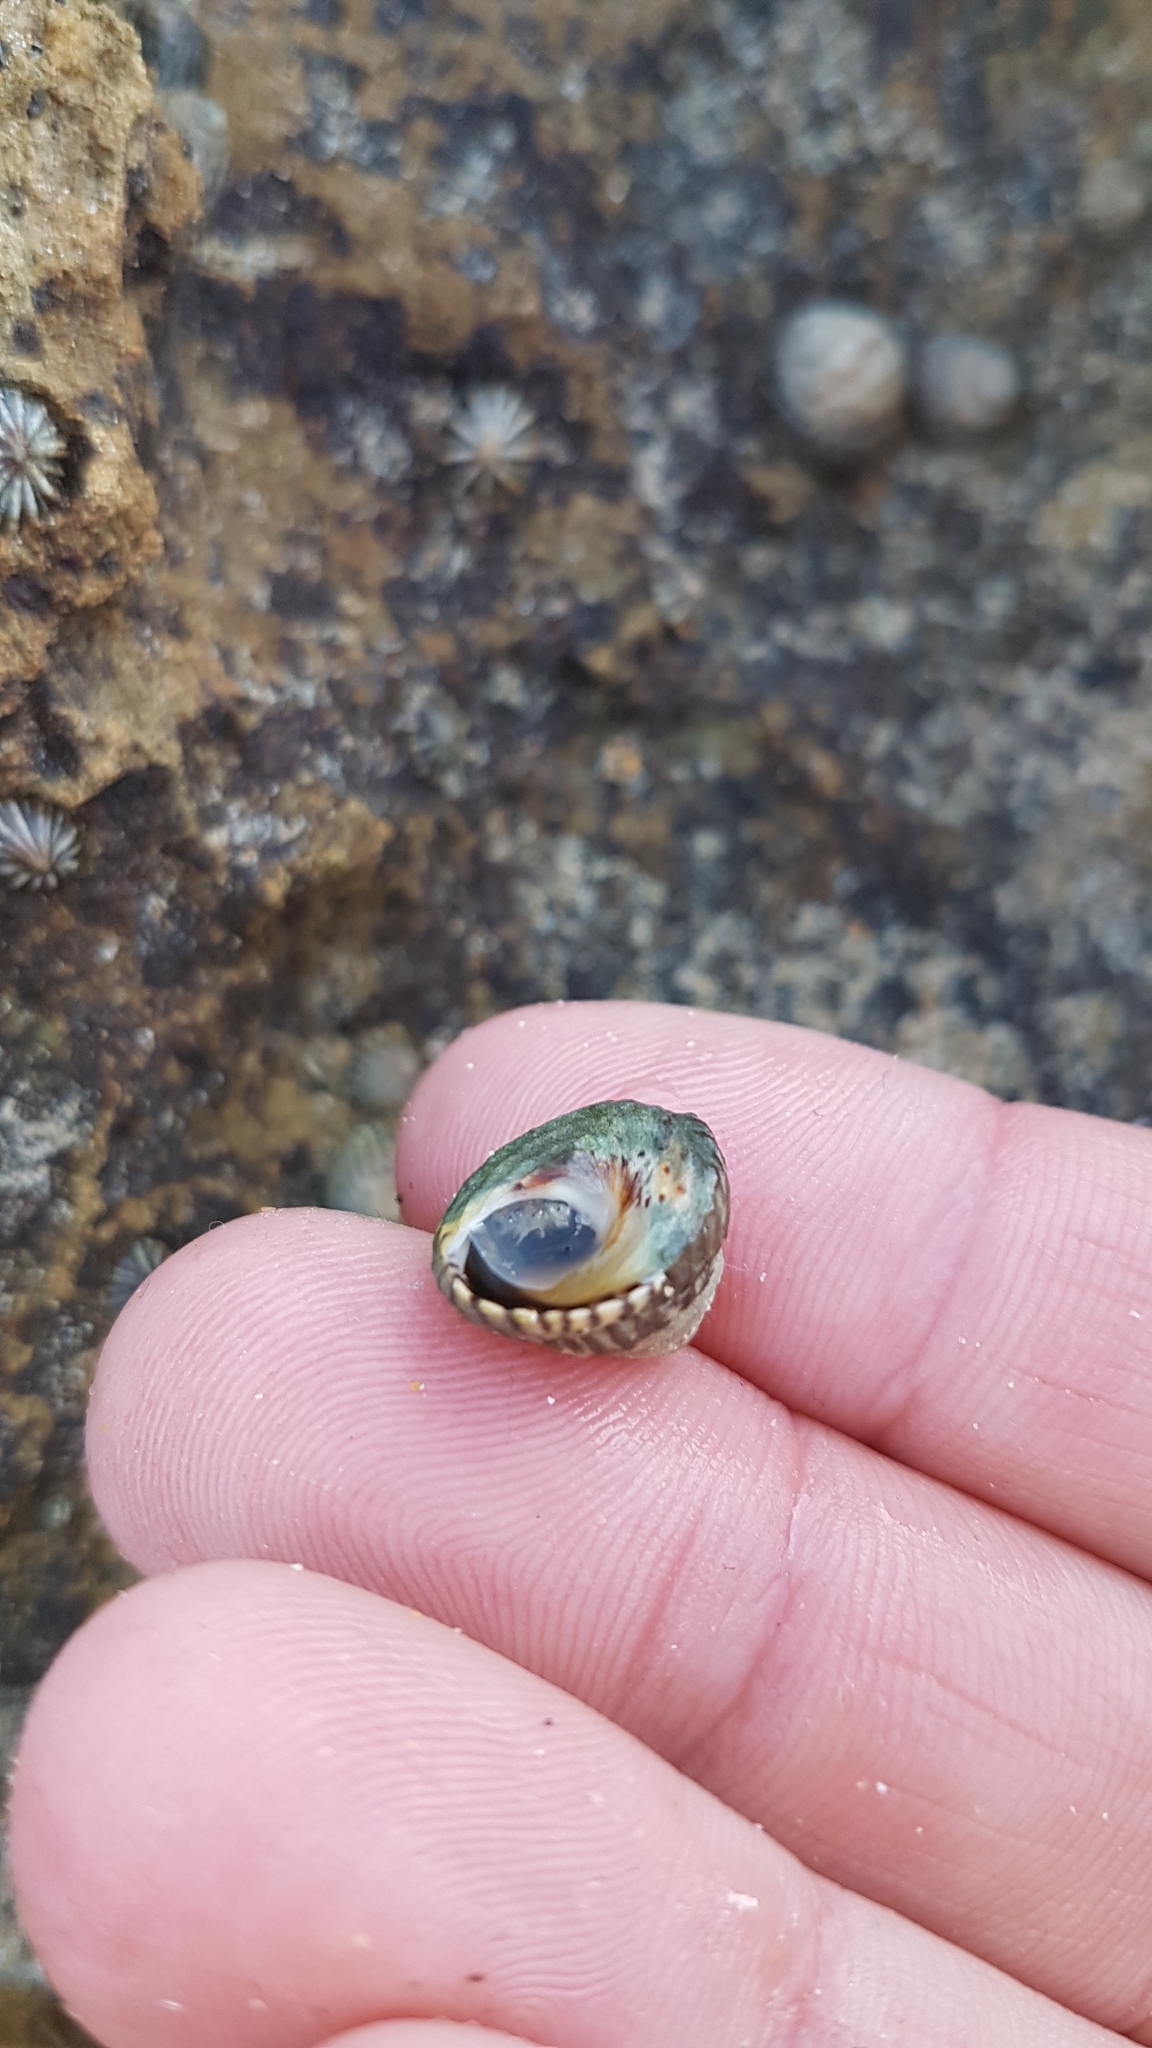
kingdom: Animalia
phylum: Mollusca
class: Gastropoda
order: Littorinimorpha
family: Littorinidae
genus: Bembicium
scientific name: Bembicium nanum
